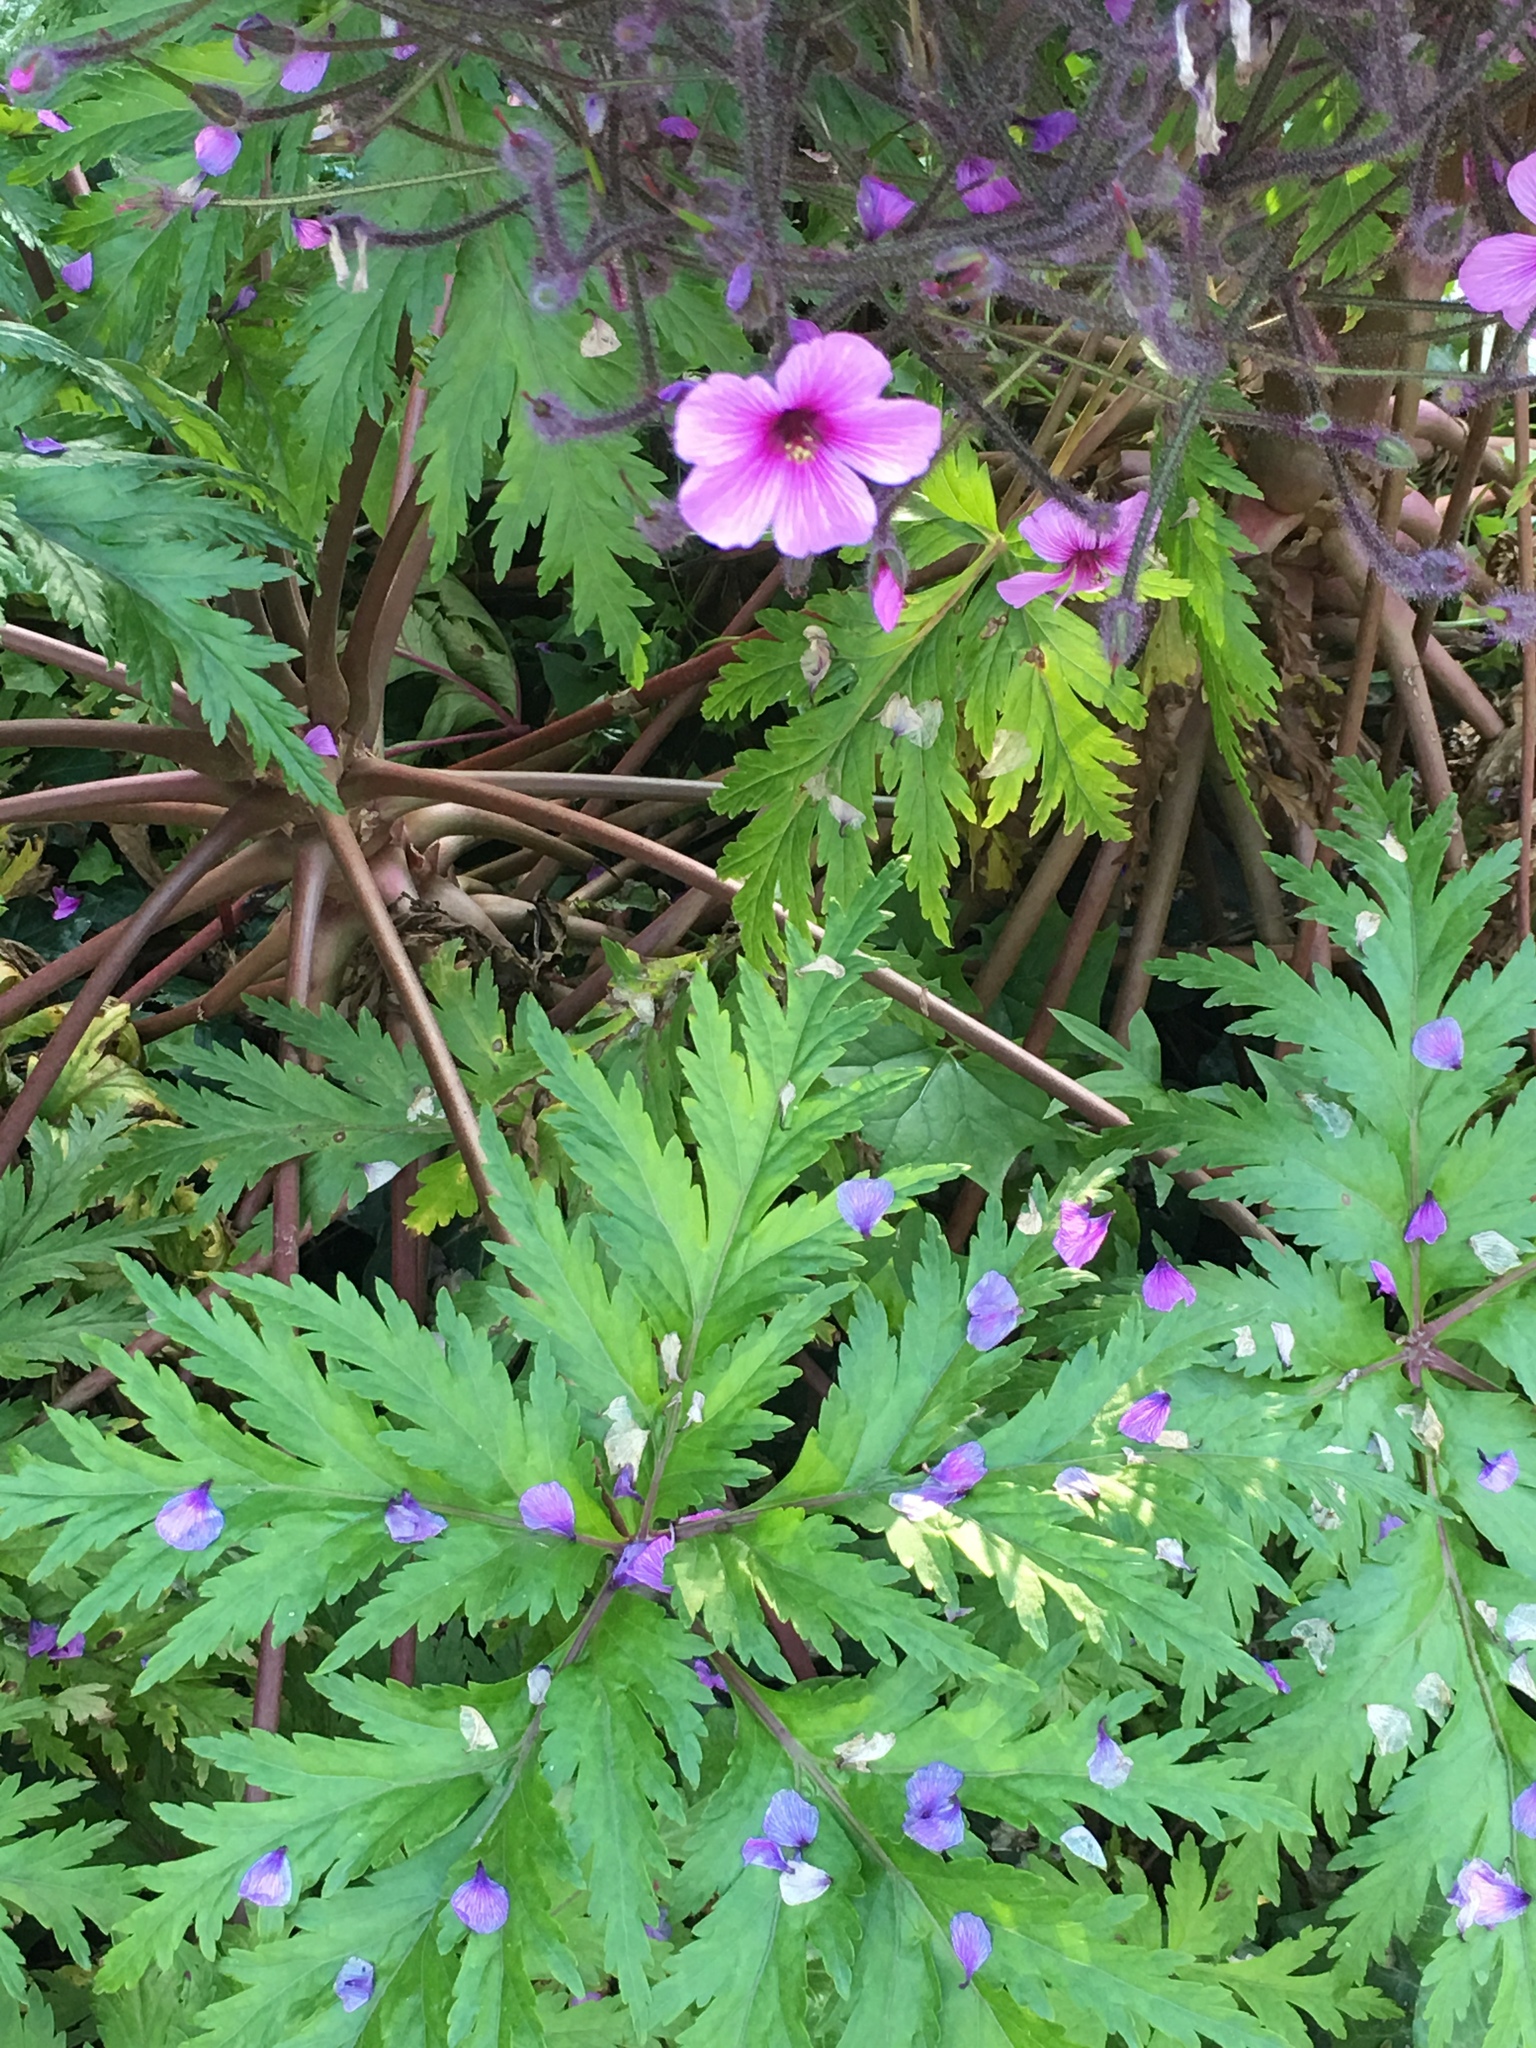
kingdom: Plantae
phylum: Tracheophyta
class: Magnoliopsida
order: Geraniales
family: Geraniaceae
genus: Geranium
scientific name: Geranium maderense
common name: Giant herb-robert
